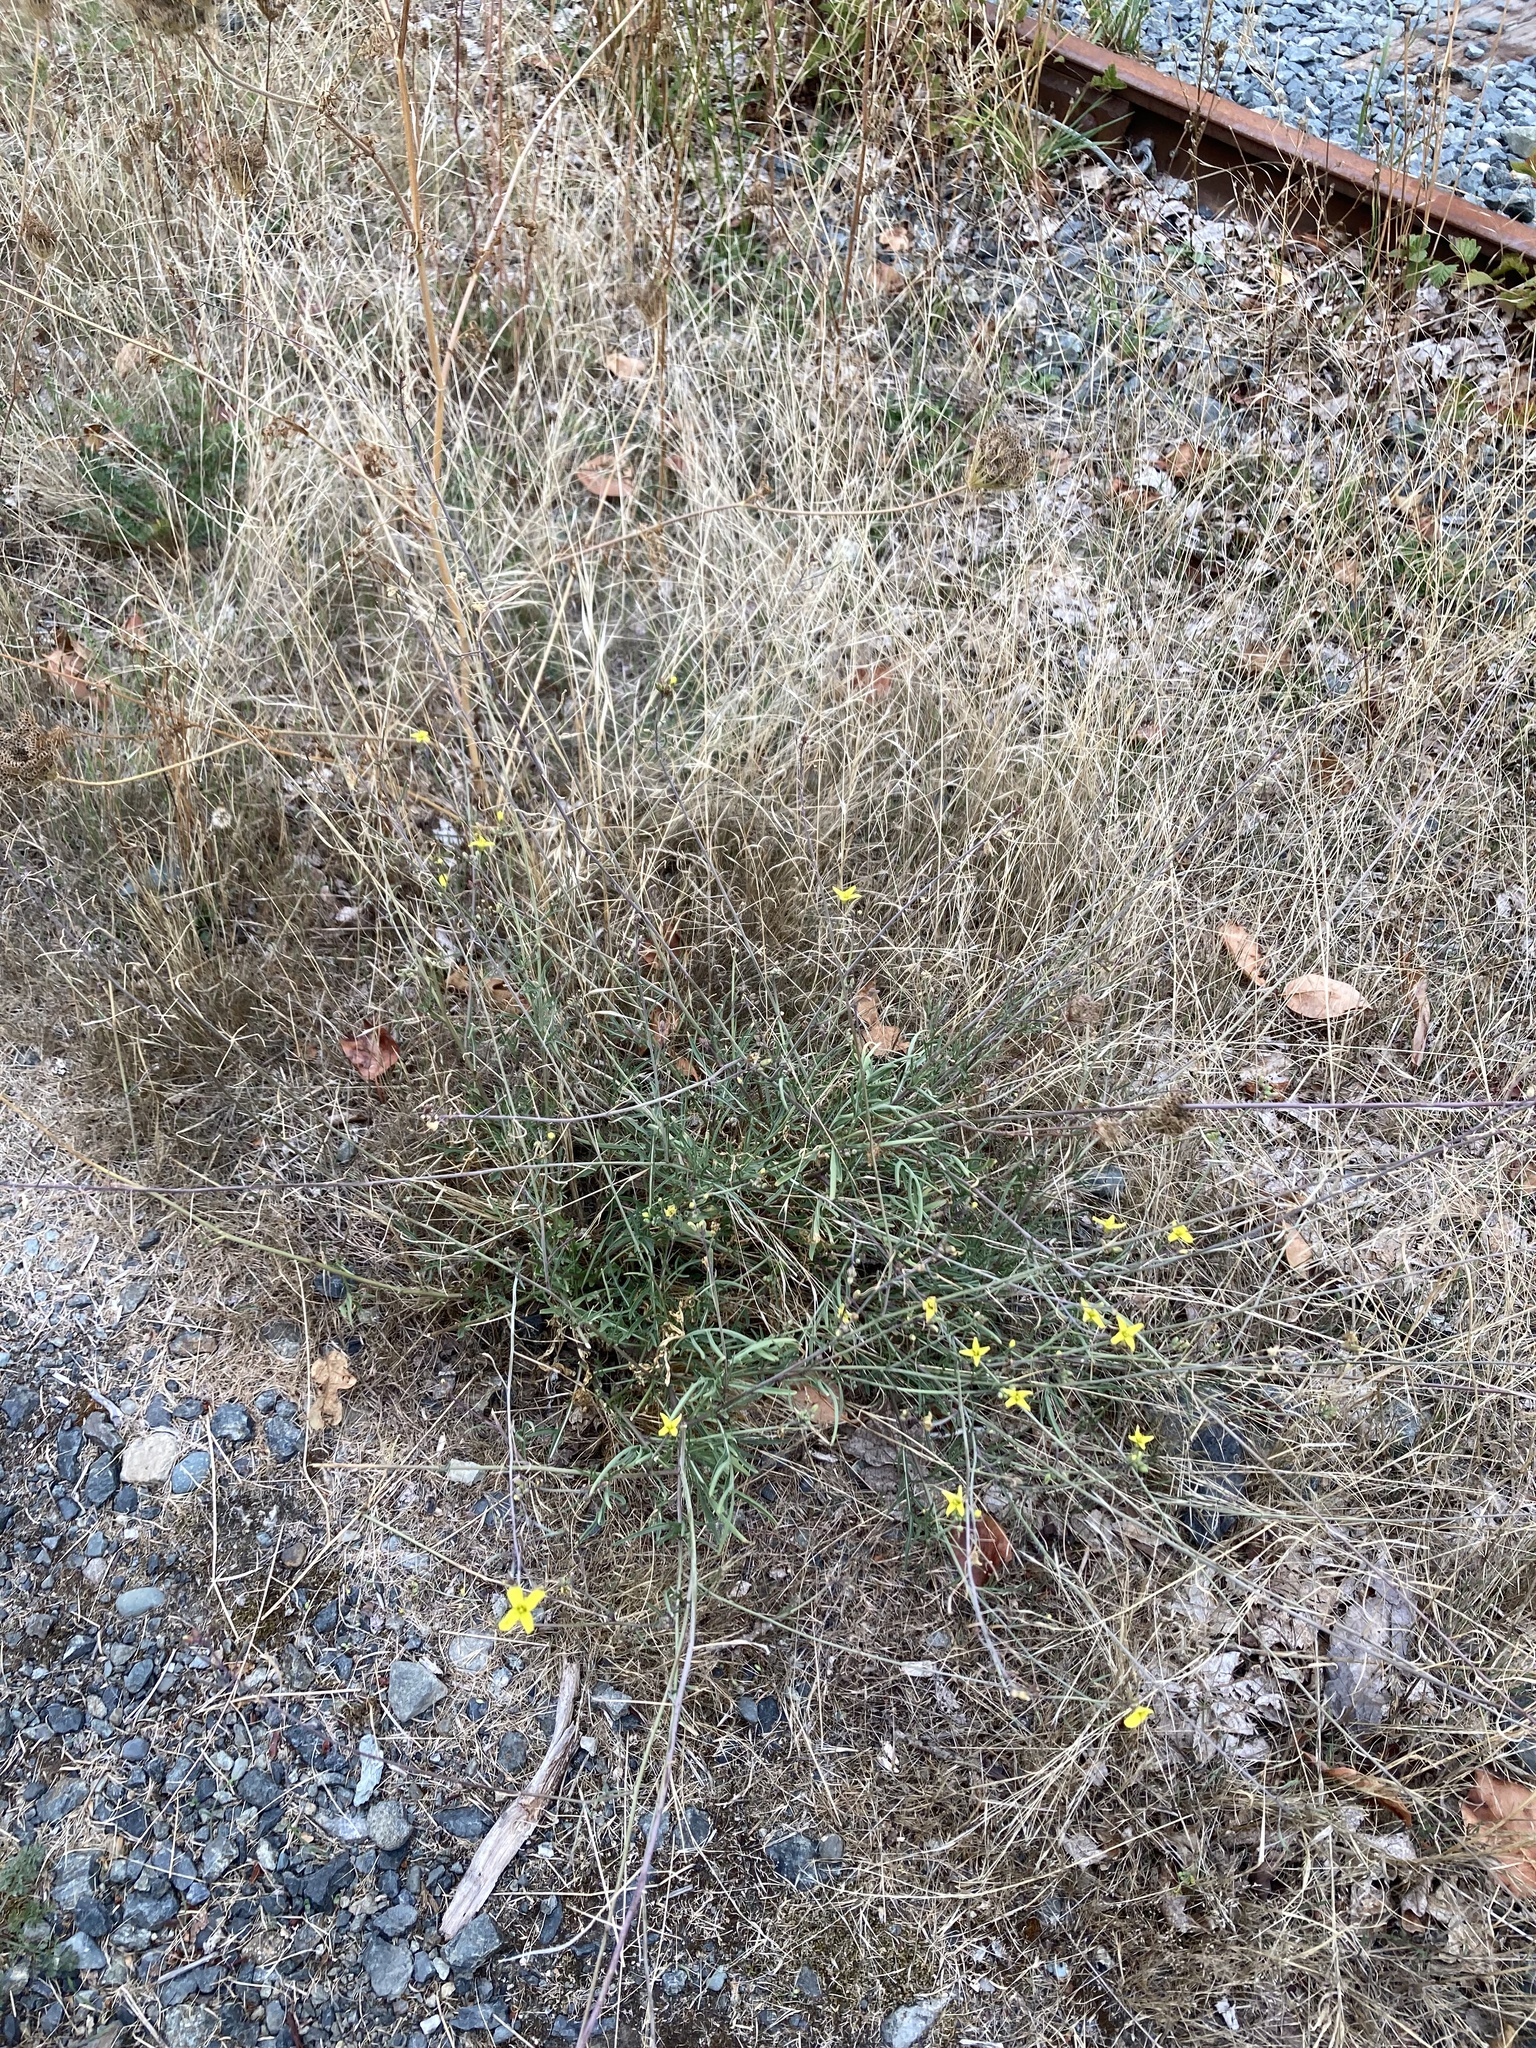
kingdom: Plantae
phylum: Tracheophyta
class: Magnoliopsida
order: Brassicales
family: Brassicaceae
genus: Diplotaxis
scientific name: Diplotaxis tenuifolia
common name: Perennial wall-rocket
